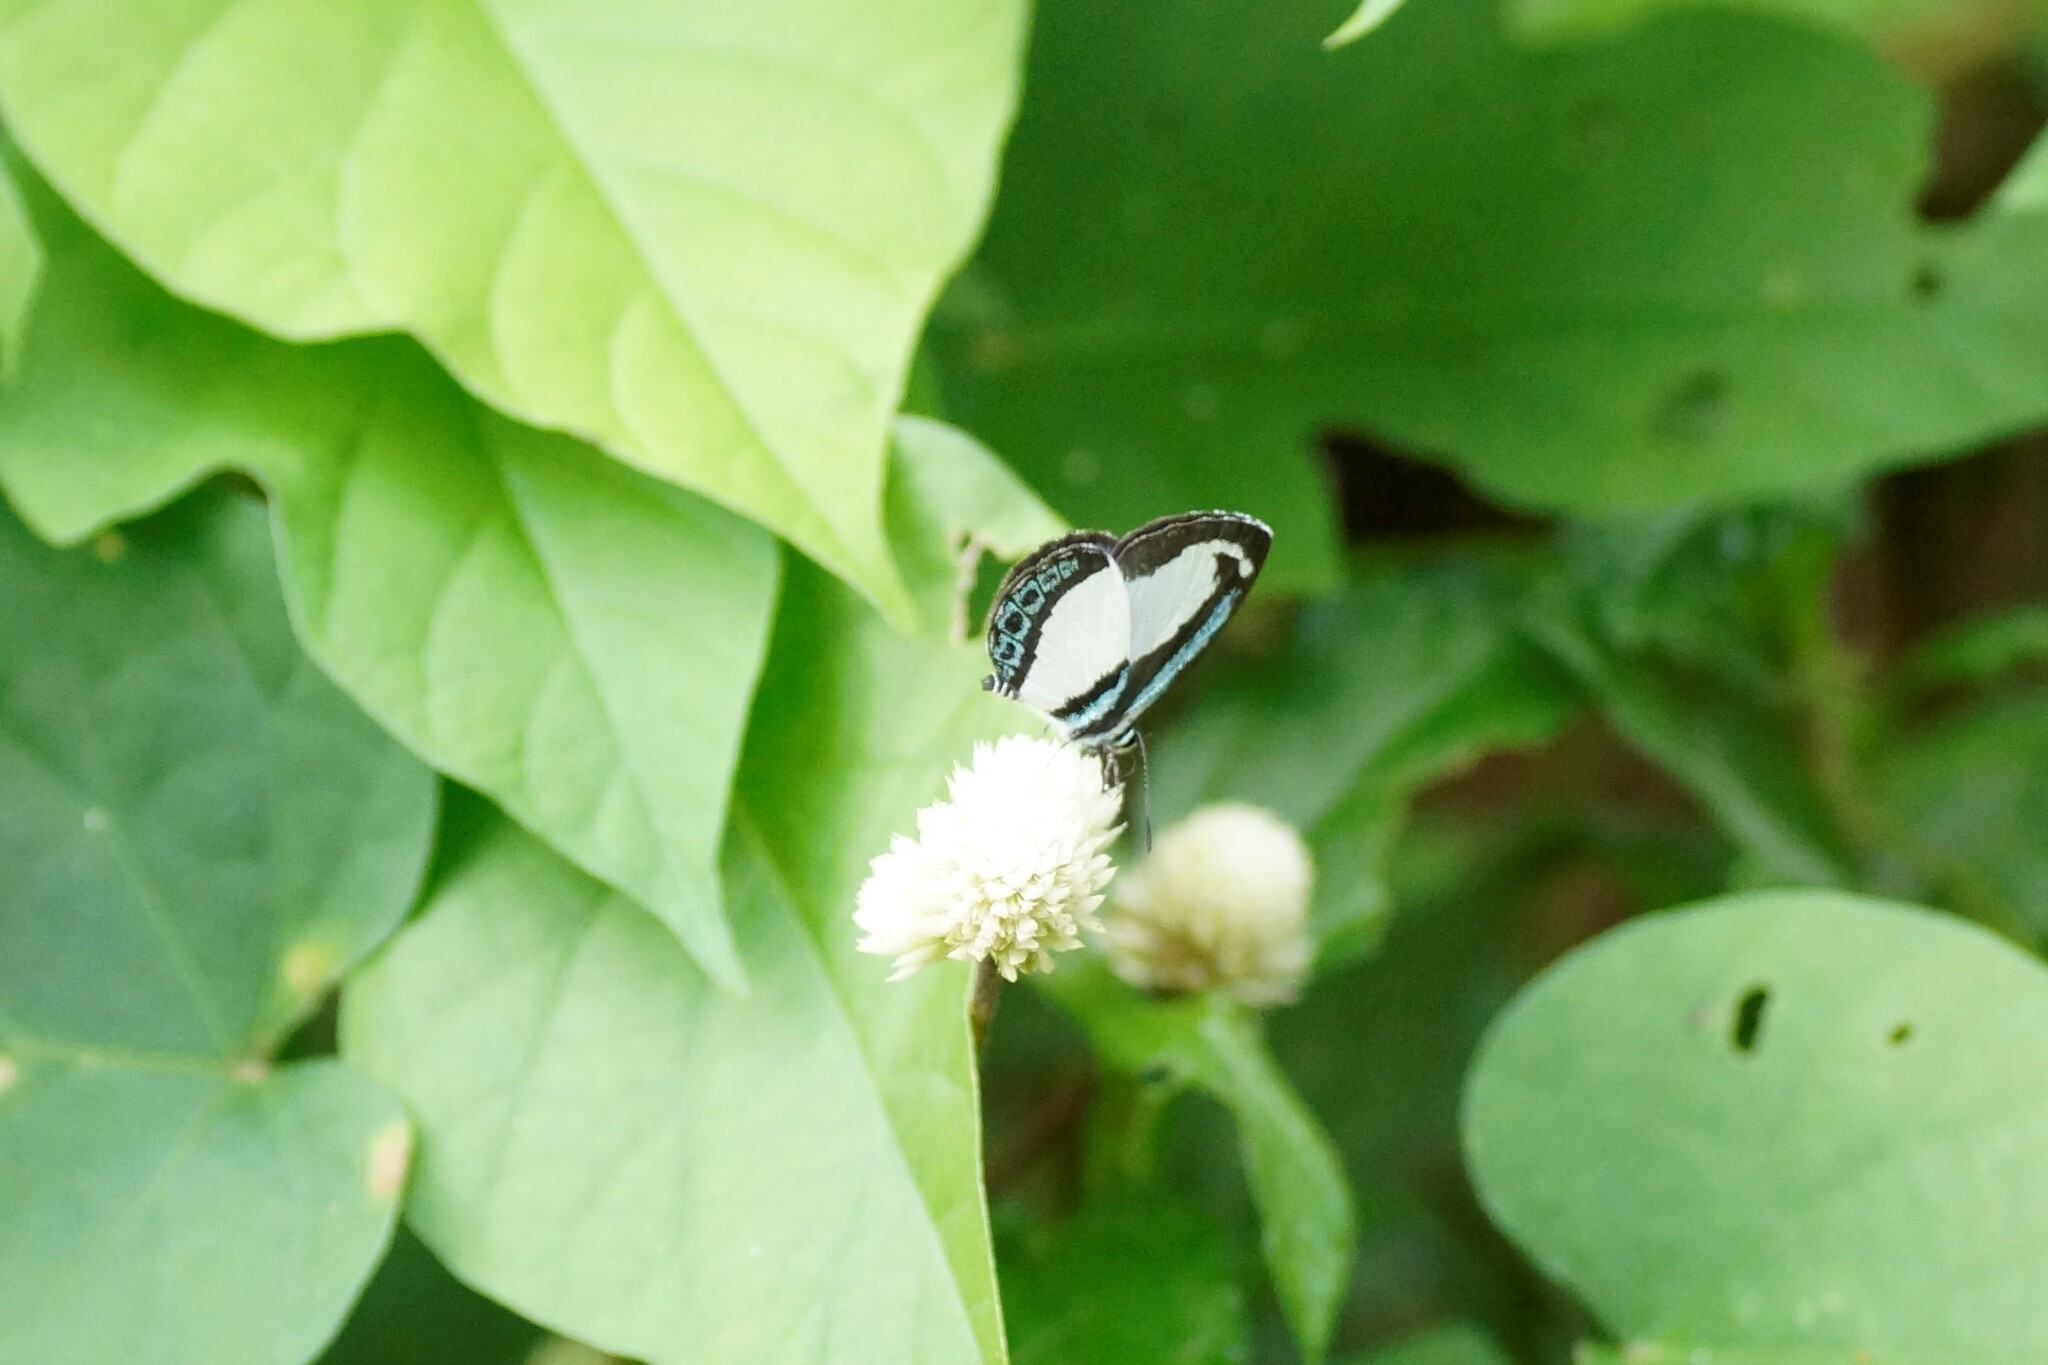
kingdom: Animalia
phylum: Arthropoda
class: Insecta
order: Lepidoptera
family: Lycaenidae
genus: Psychonotis
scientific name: Psychonotis caelius
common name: Small green banded blue
